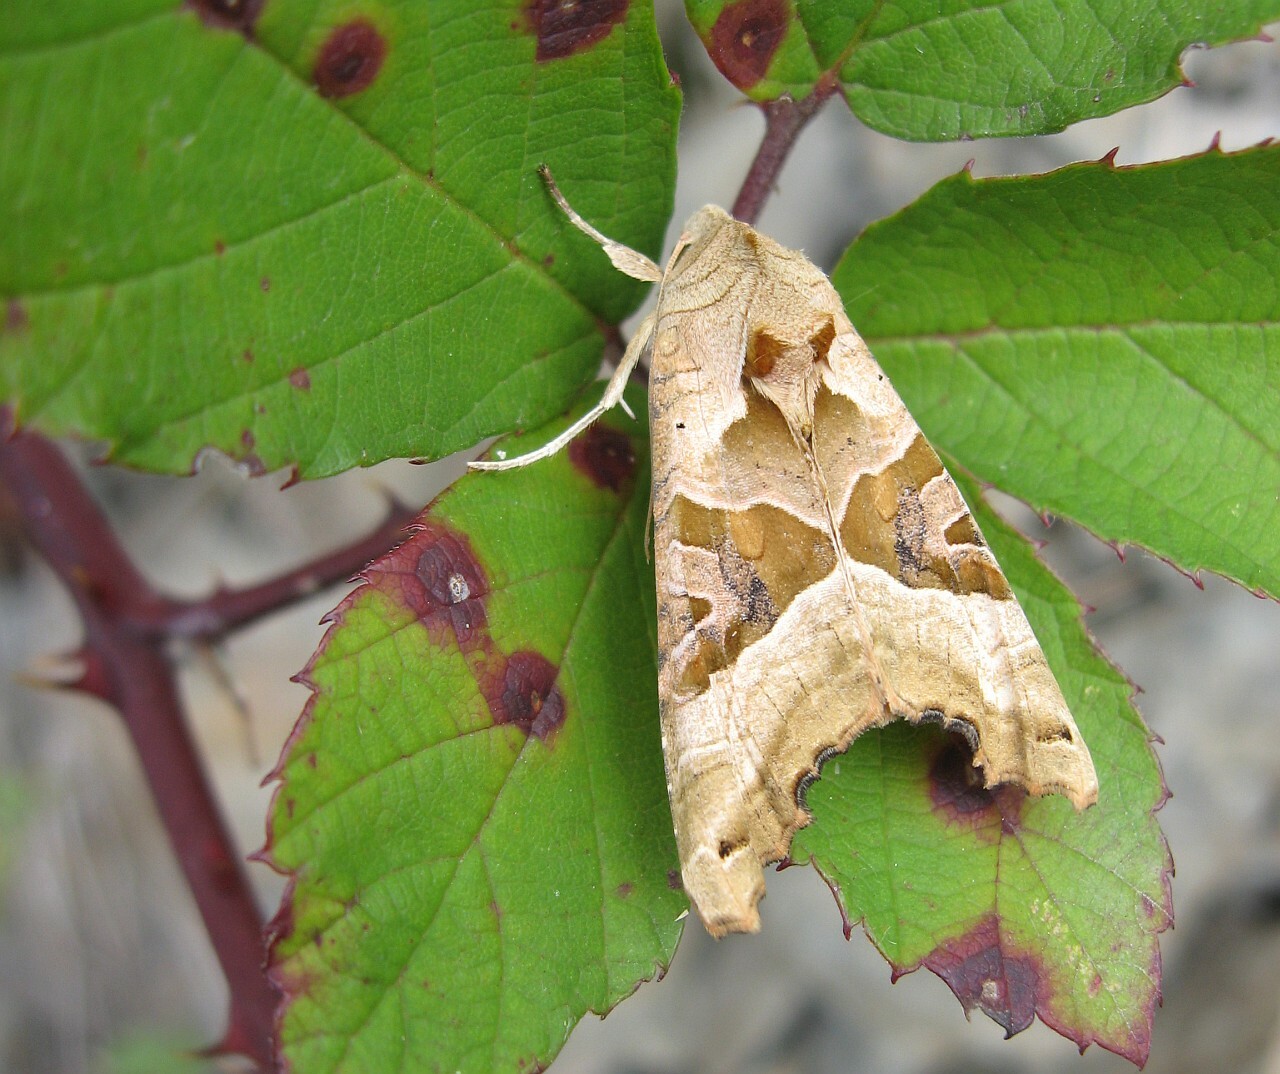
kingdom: Animalia
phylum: Arthropoda
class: Insecta
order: Lepidoptera
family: Noctuidae
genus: Phlogophora
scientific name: Phlogophora meticulosa
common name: Angle shades
